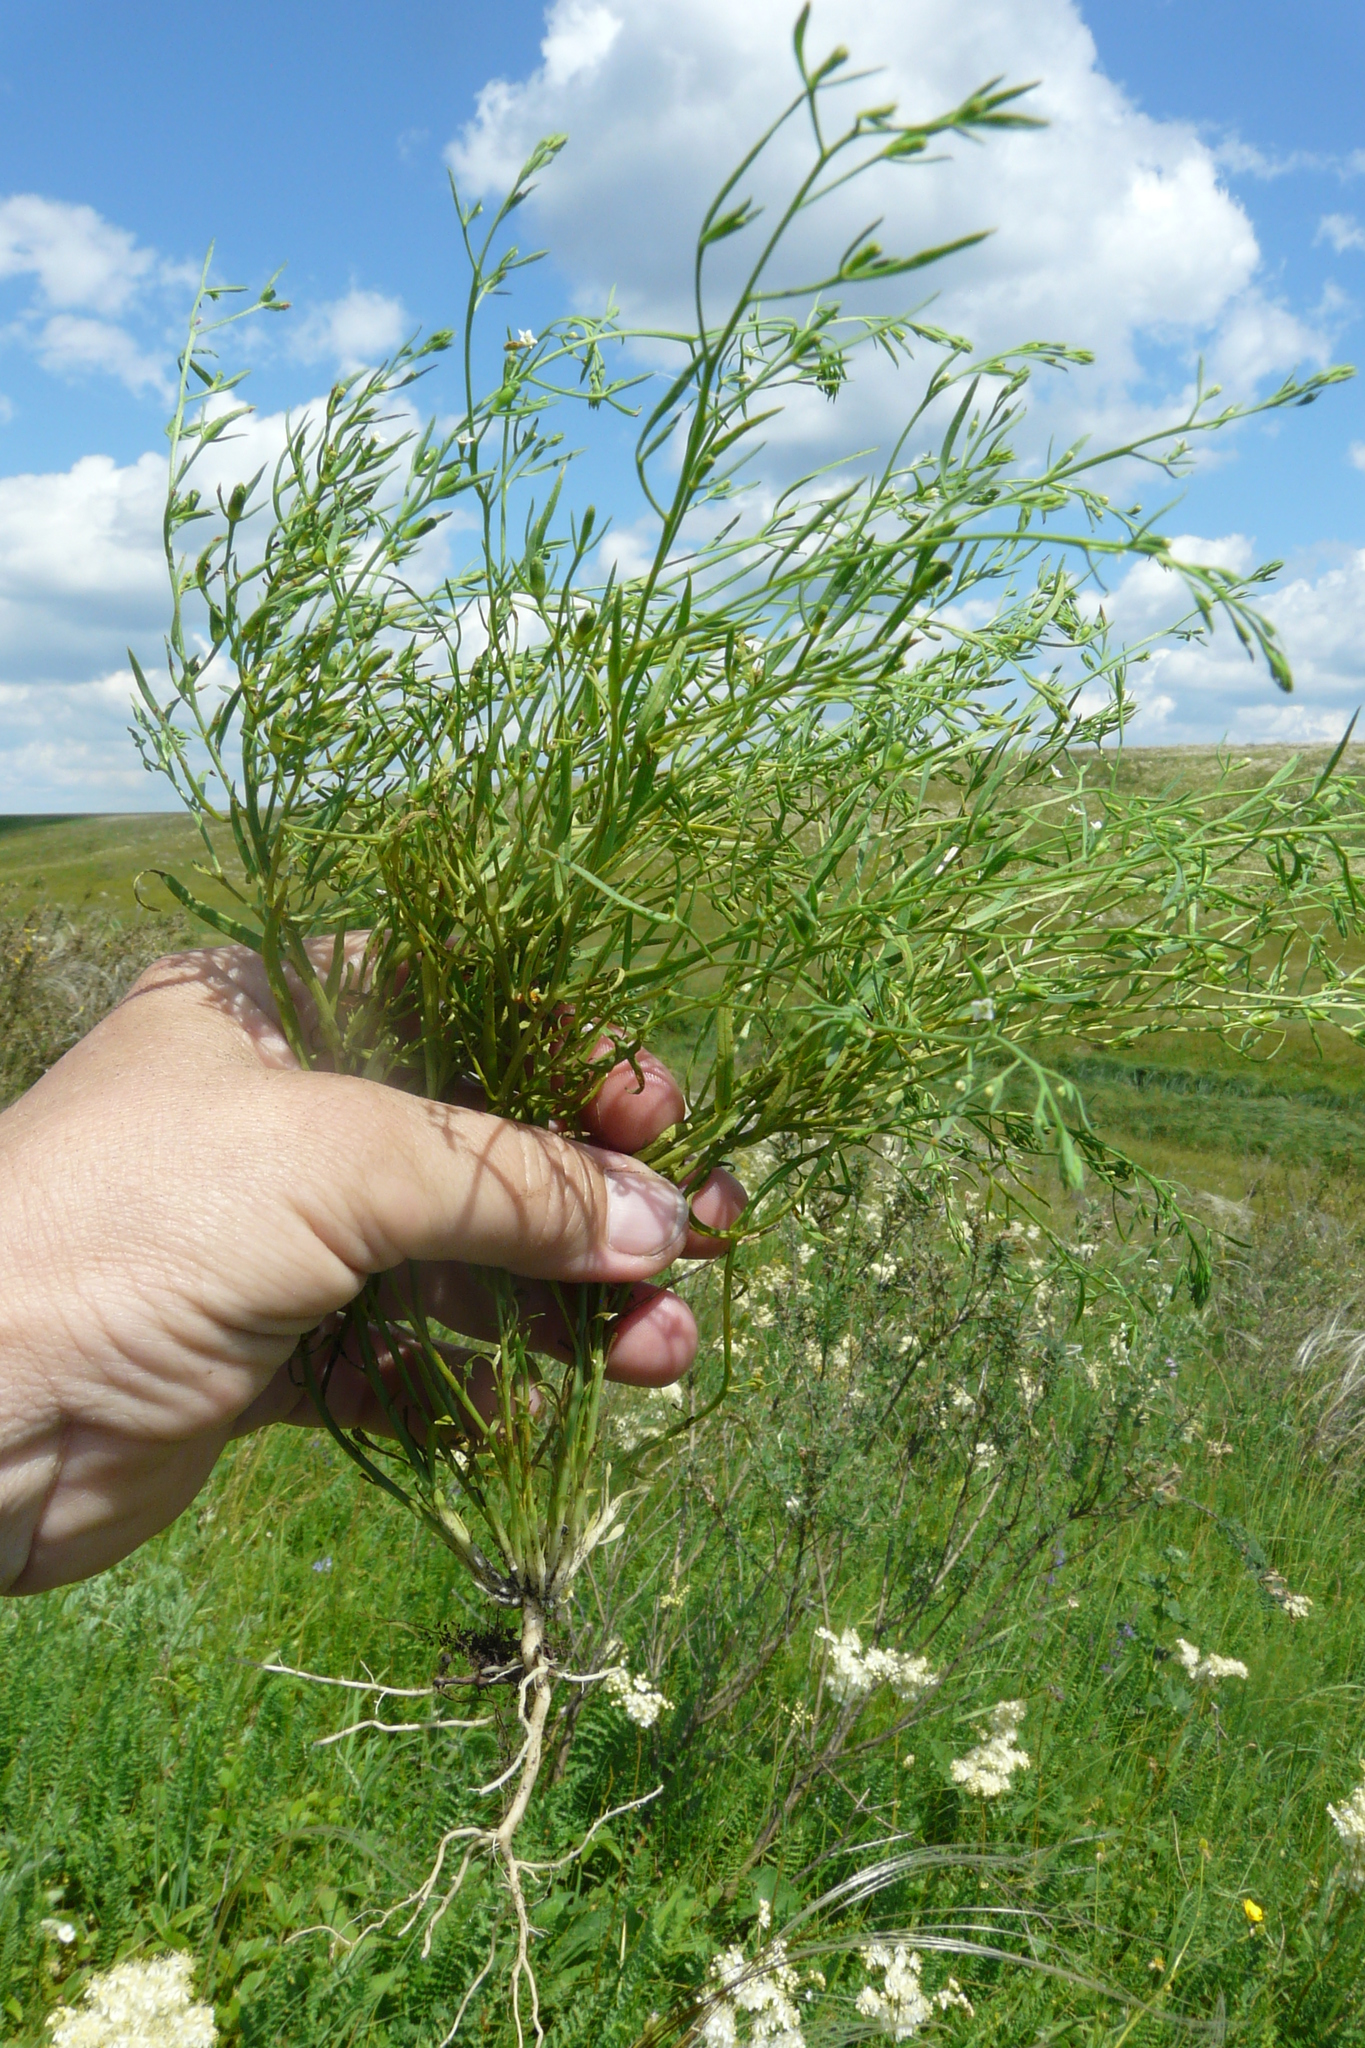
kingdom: Plantae
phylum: Tracheophyta
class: Magnoliopsida
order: Santalales
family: Thesiaceae
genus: Thesium
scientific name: Thesium ramosum
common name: Field thesium
